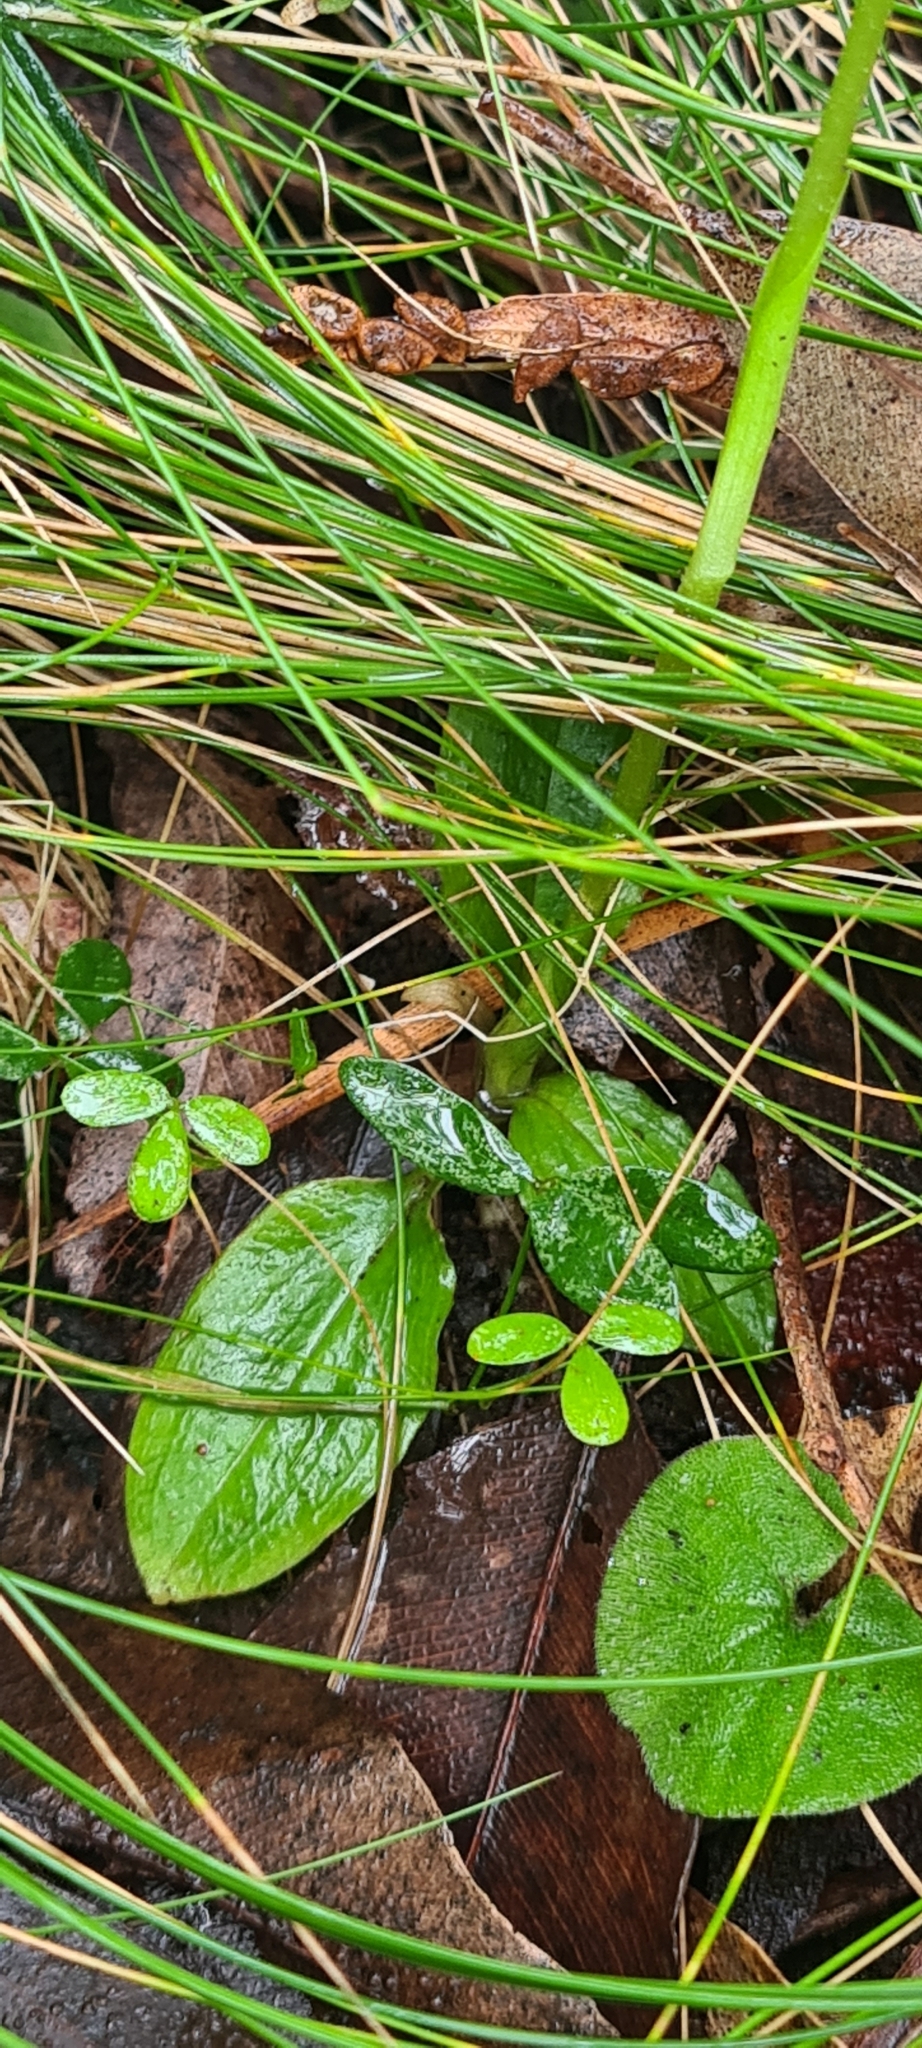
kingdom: Plantae
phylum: Tracheophyta
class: Liliopsida
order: Asparagales
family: Orchidaceae
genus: Pterostylis
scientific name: Pterostylis nutans
